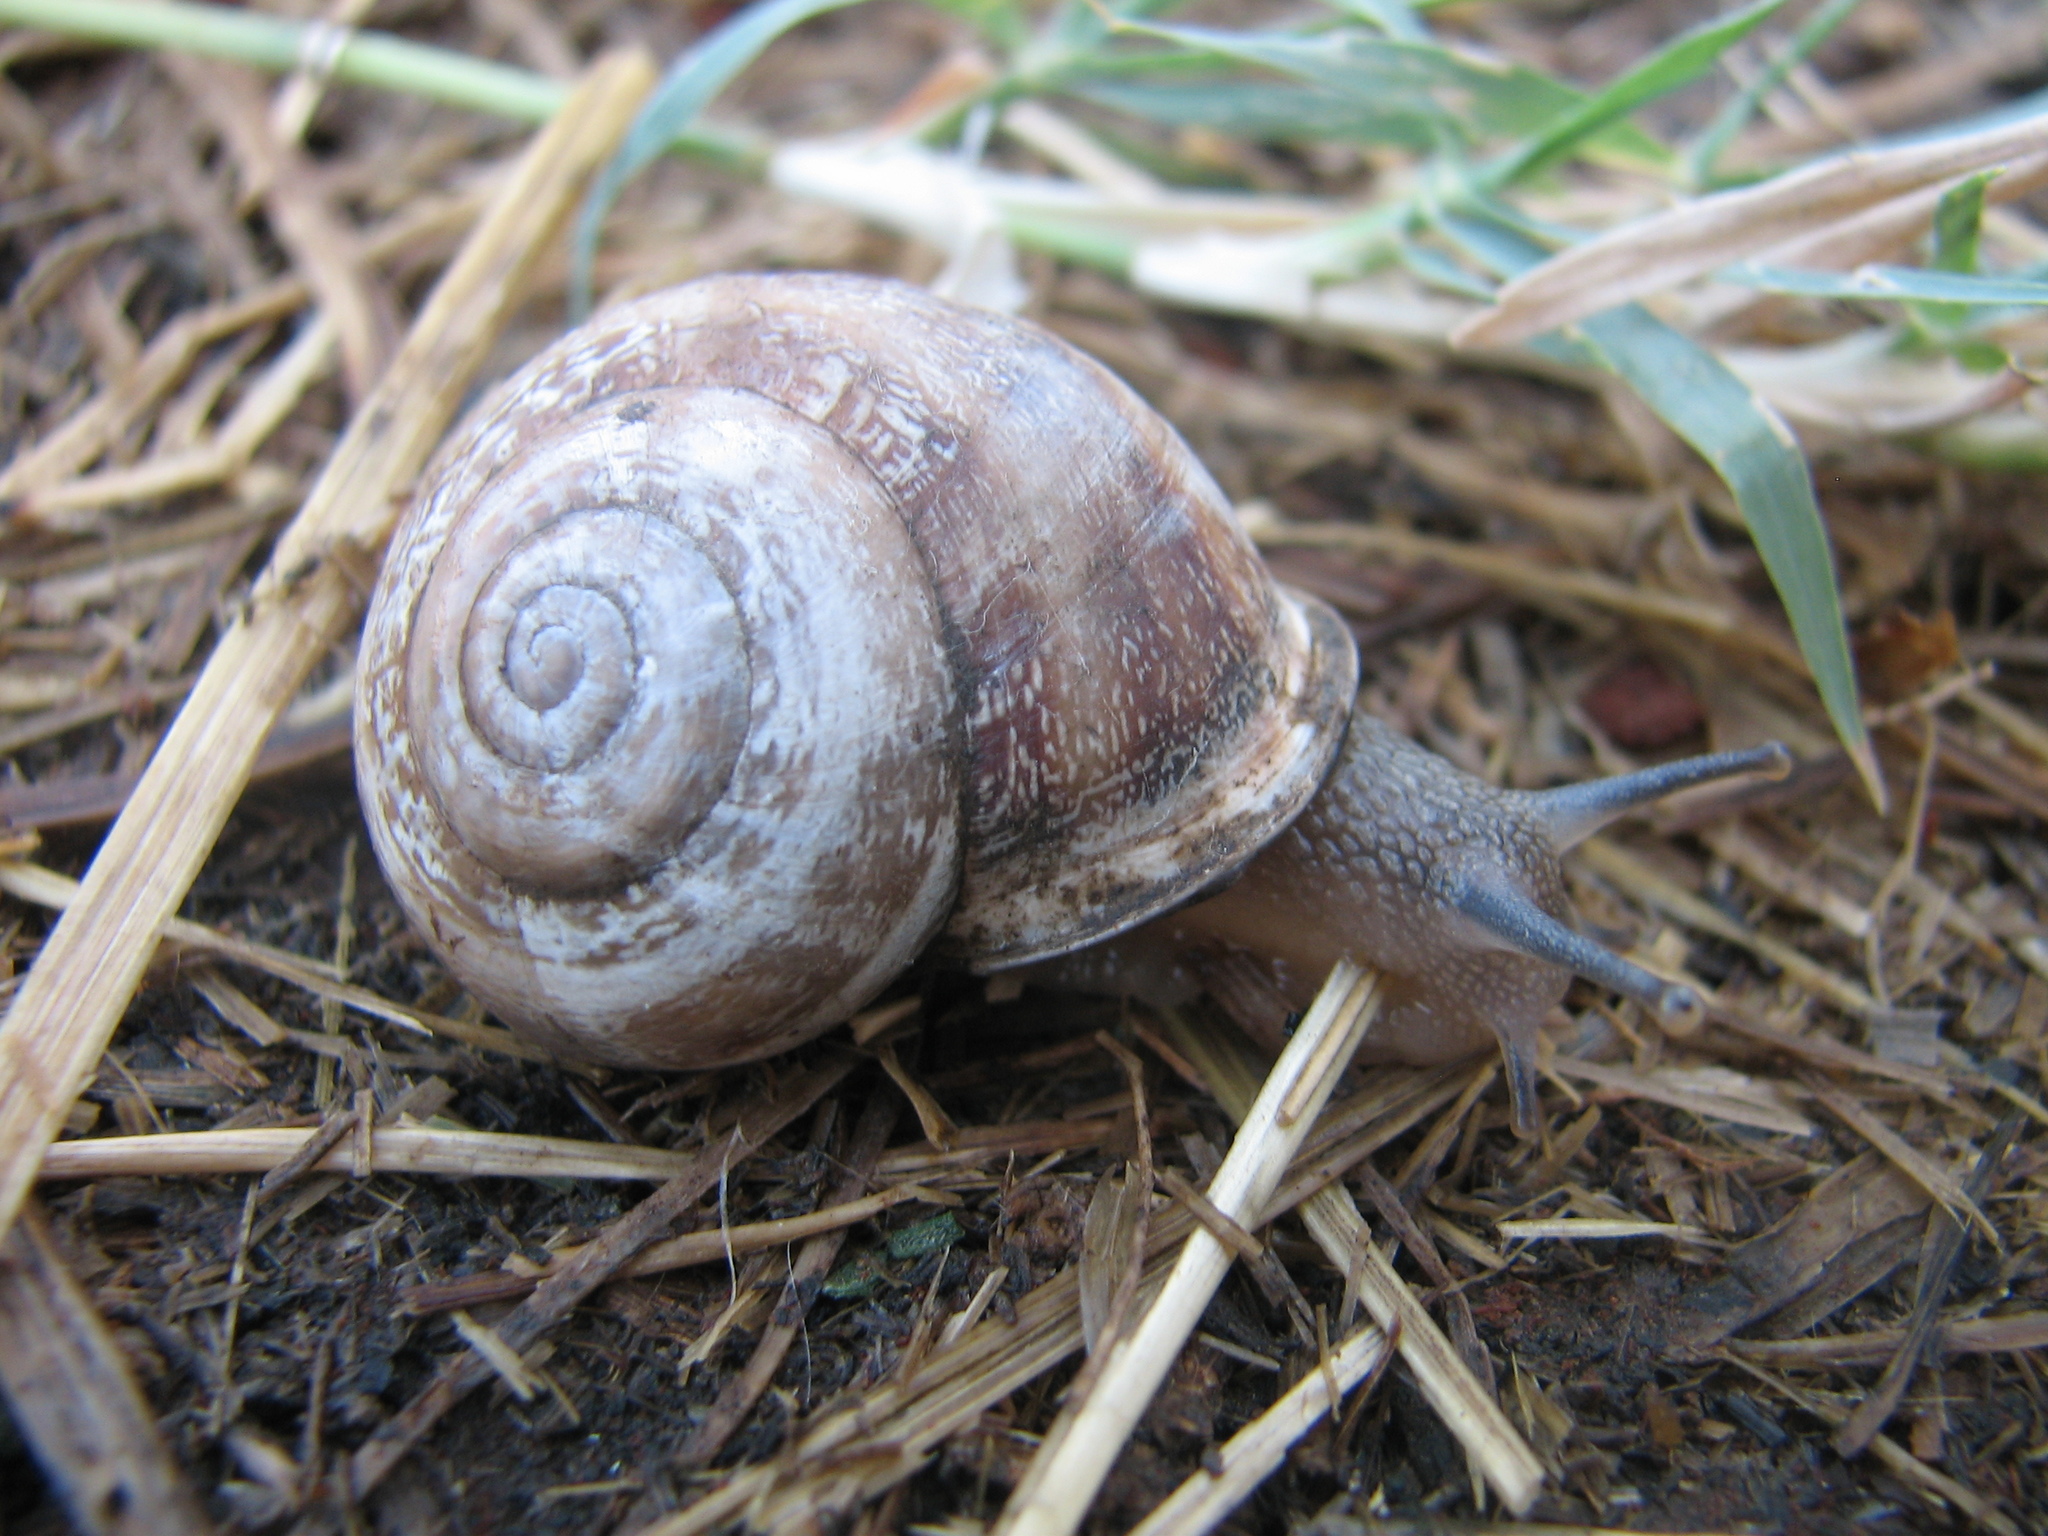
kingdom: Animalia
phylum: Mollusca
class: Gastropoda
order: Stylommatophora
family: Helicidae
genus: Eobania
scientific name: Eobania vermiculata
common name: Chocolateband snail
